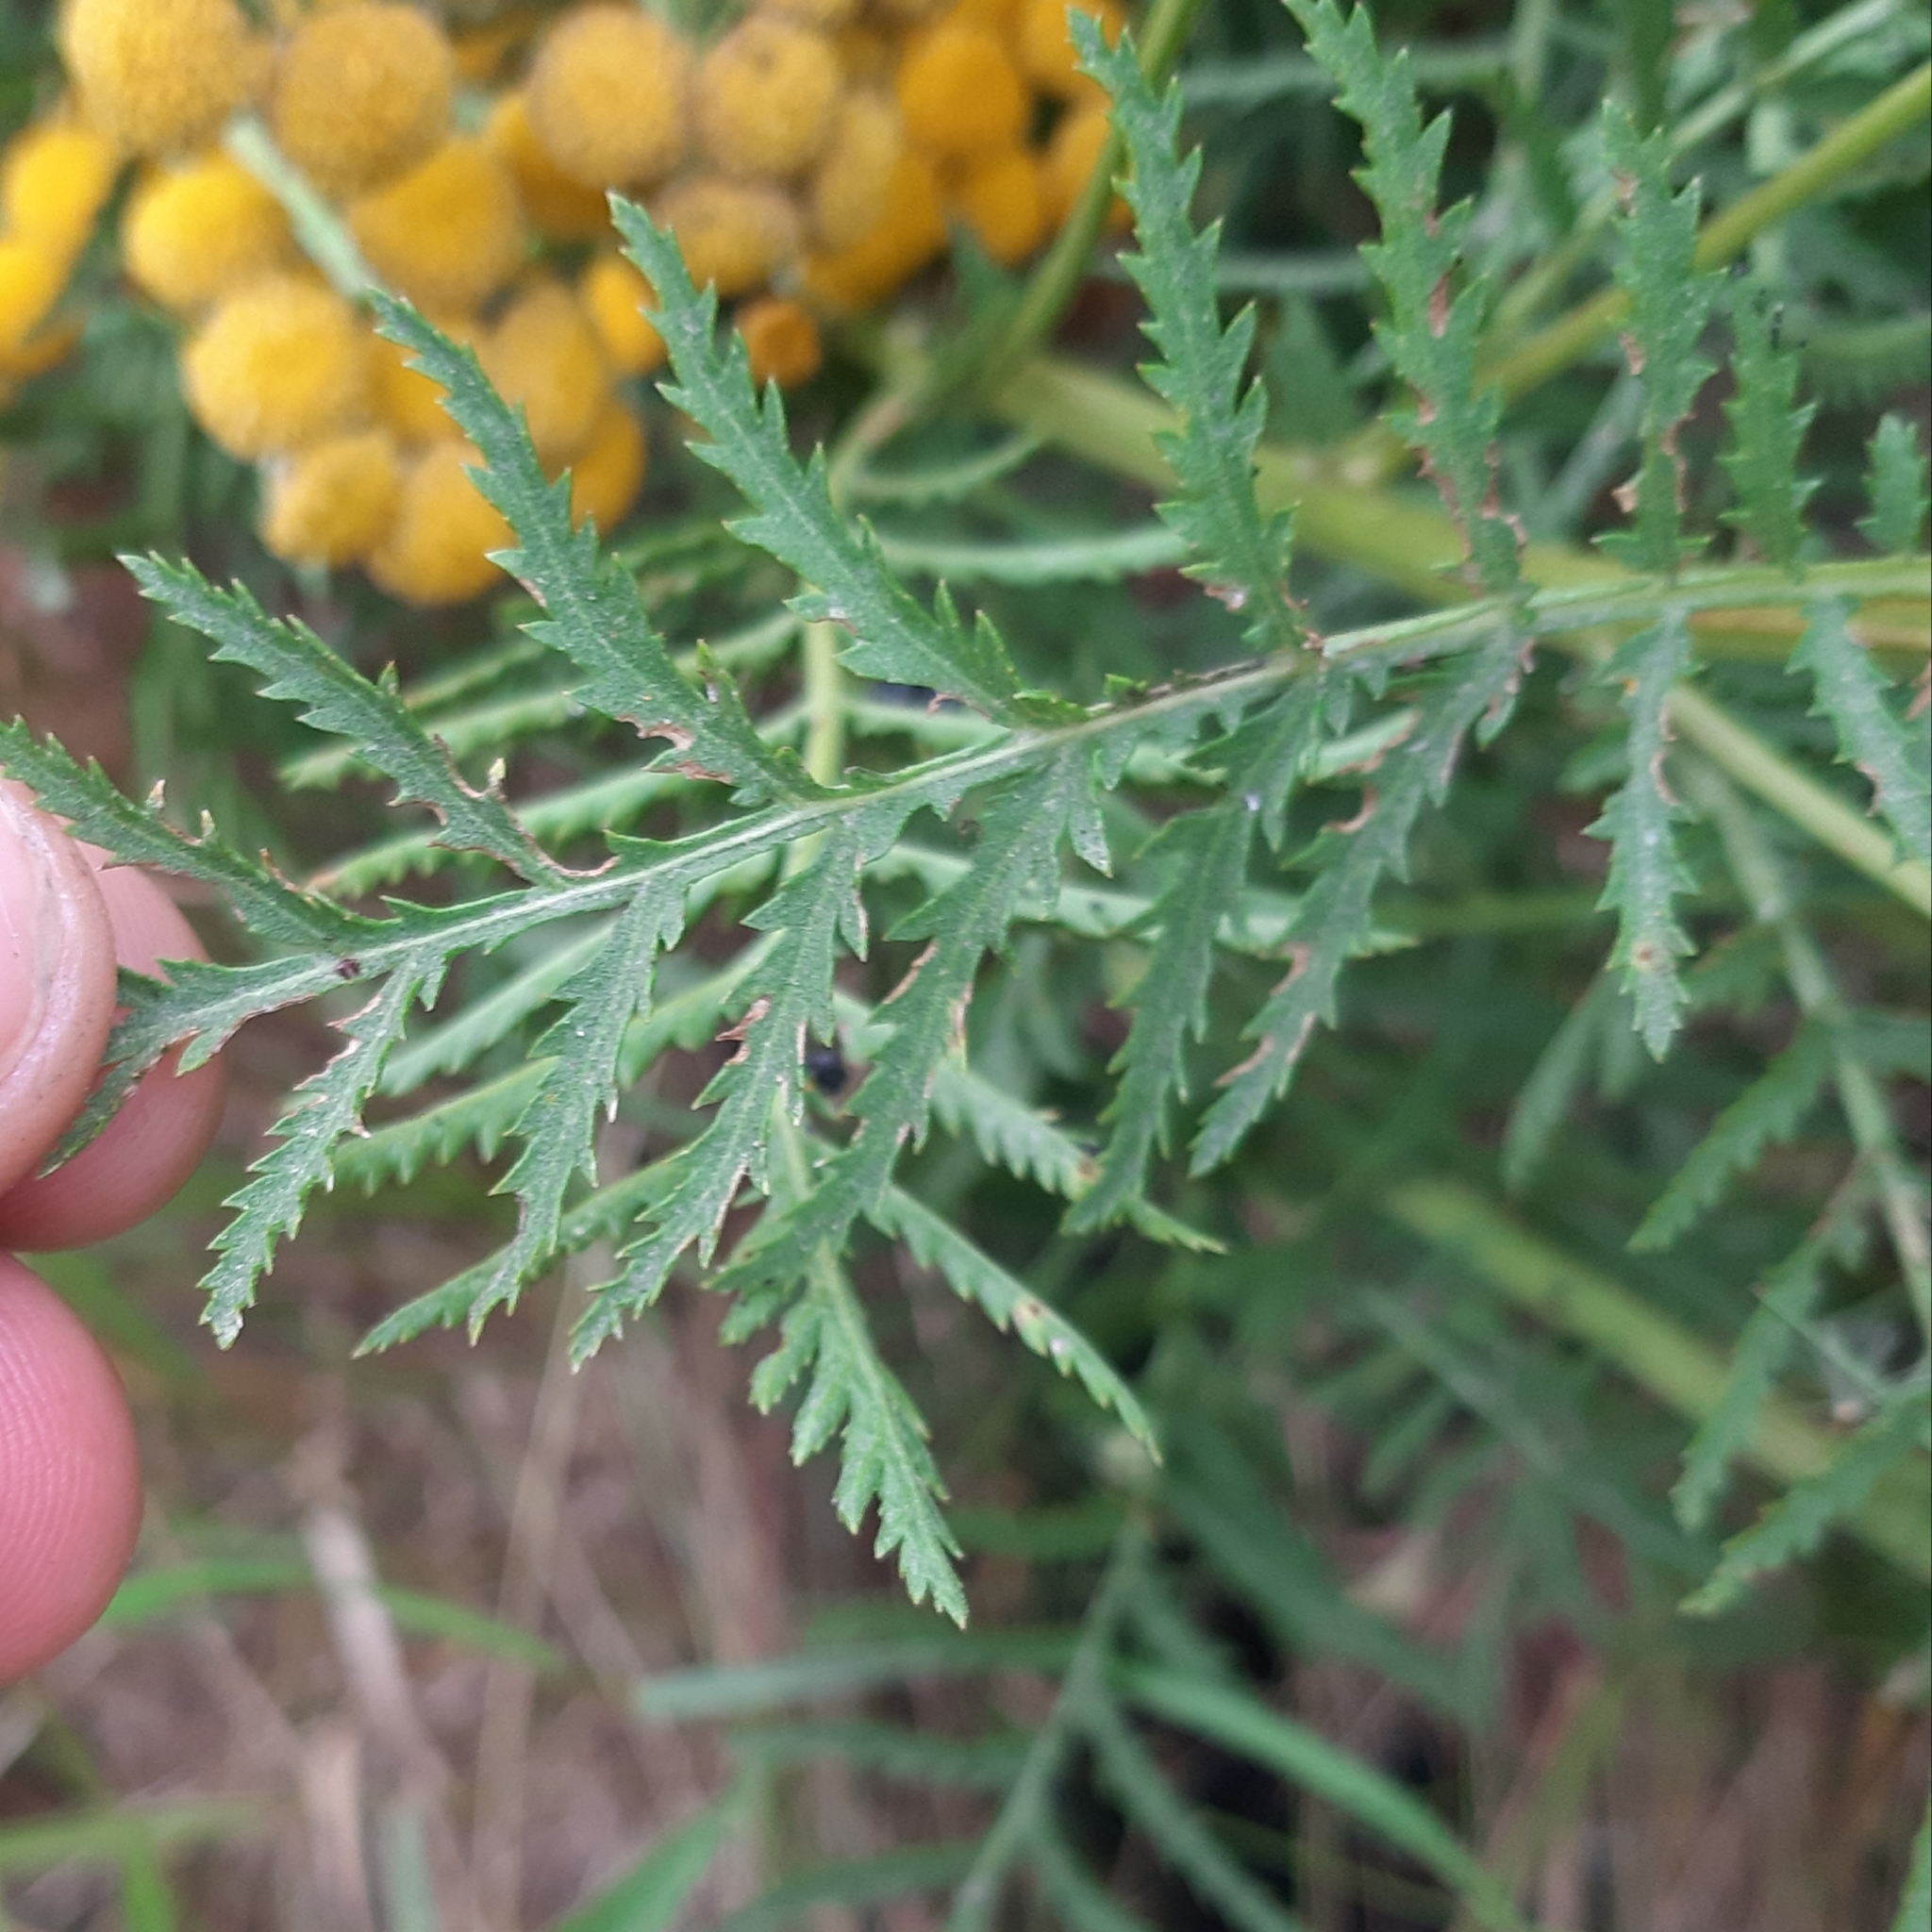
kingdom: Plantae
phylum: Tracheophyta
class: Magnoliopsida
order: Asterales
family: Asteraceae
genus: Tanacetum
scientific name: Tanacetum vulgare
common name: Common tansy
